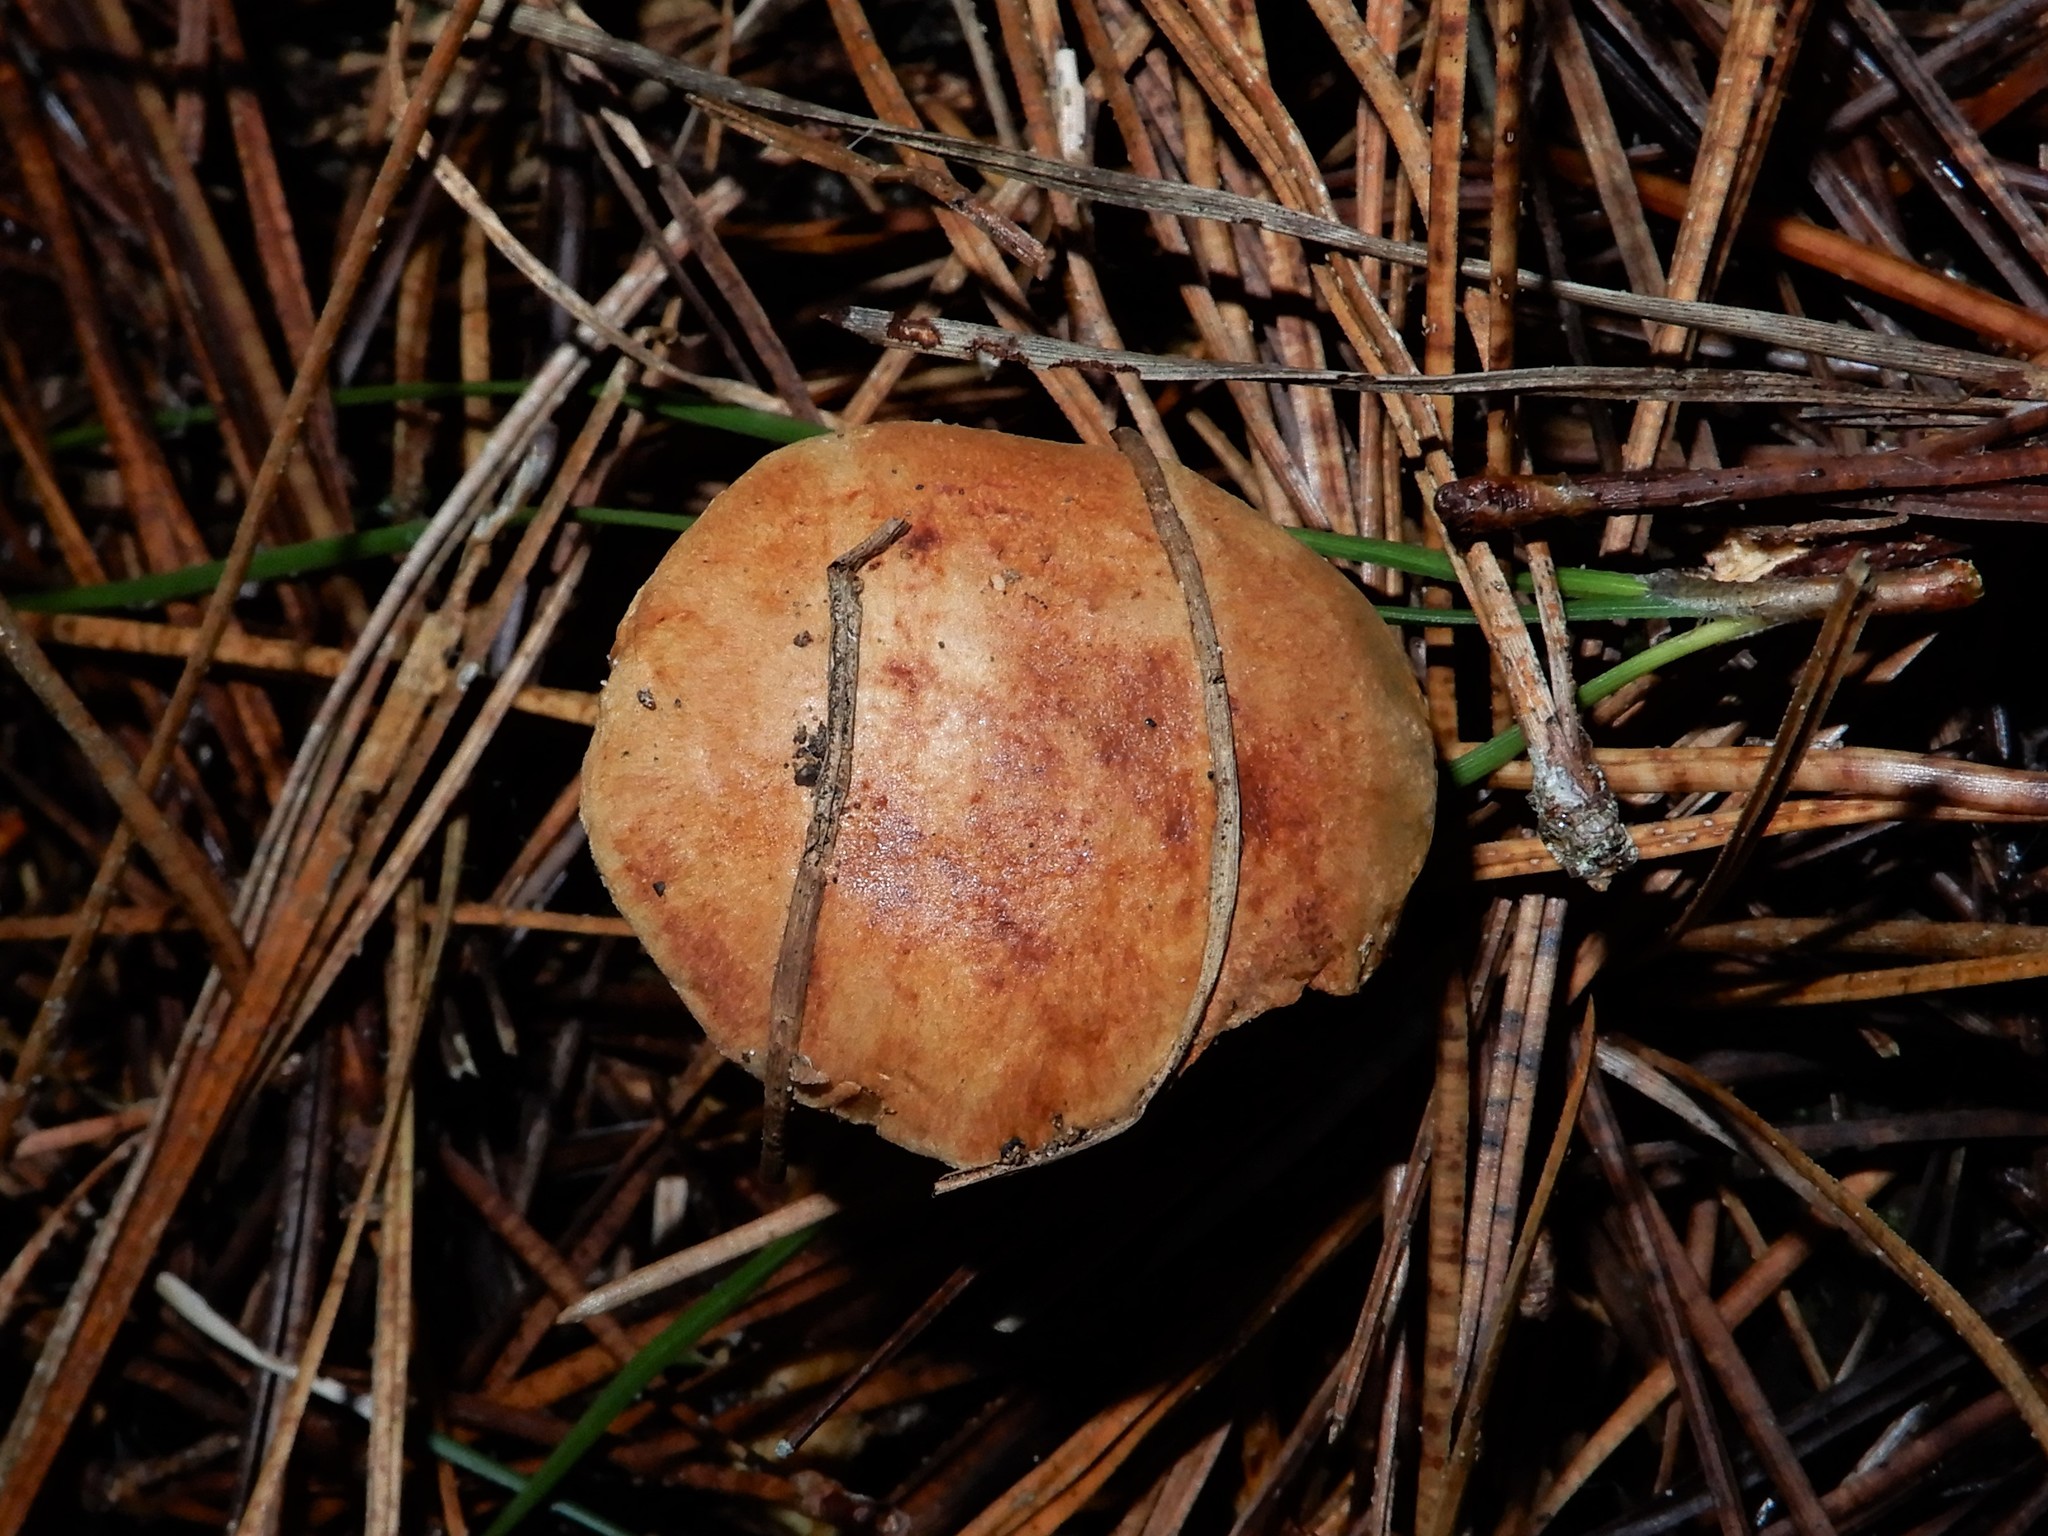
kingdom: Fungi
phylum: Basidiomycota
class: Agaricomycetes
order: Boletales
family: Boletaceae
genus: Chalciporus
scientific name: Chalciporus piperatus
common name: Peppery bolete
